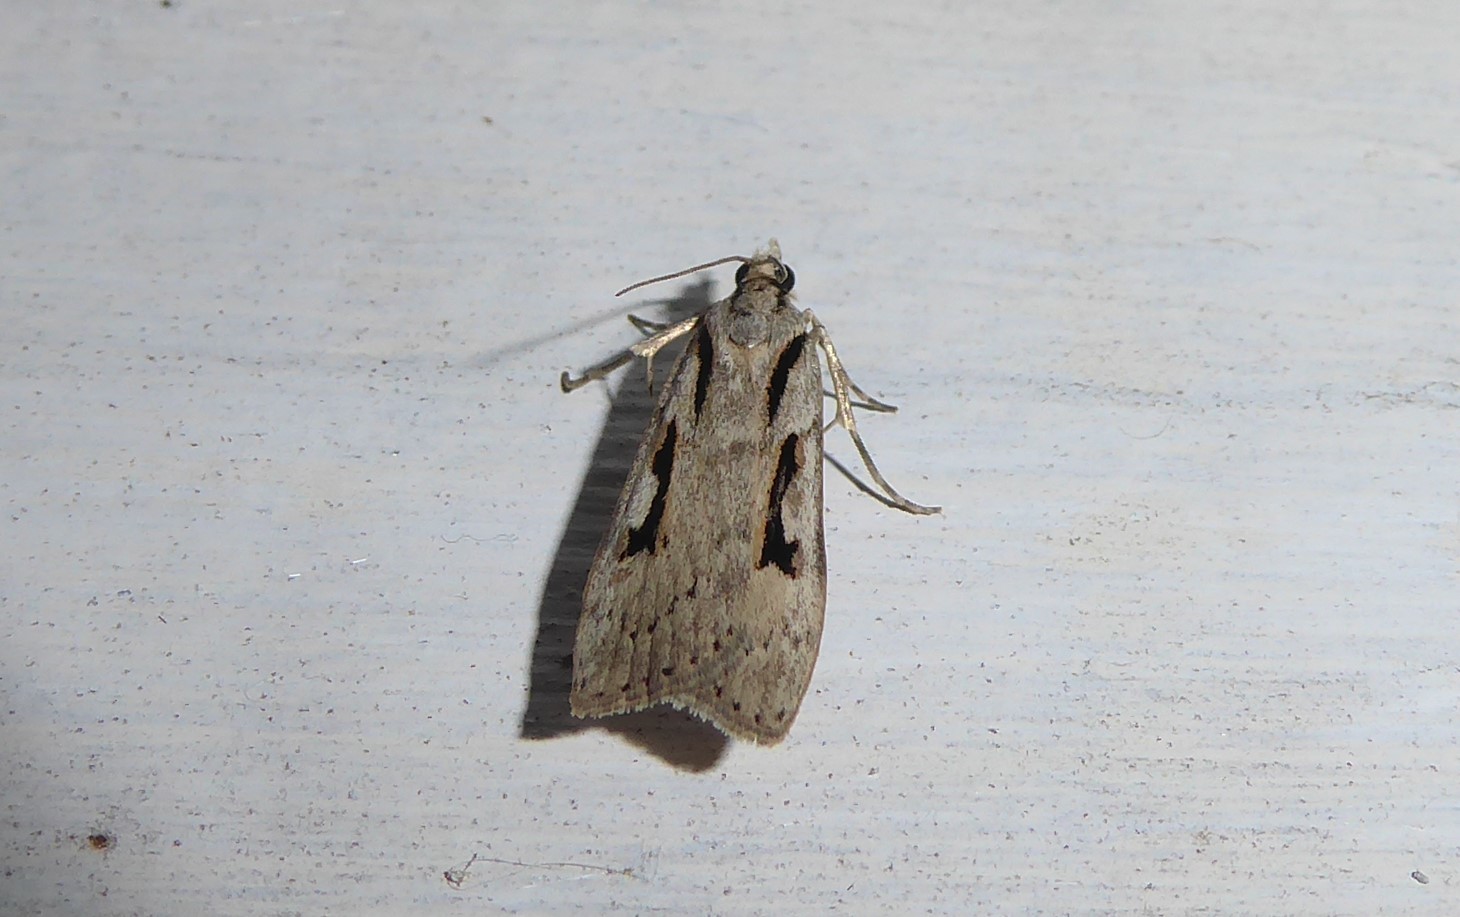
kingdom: Animalia
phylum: Arthropoda
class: Insecta
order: Lepidoptera
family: Crambidae
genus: Scoparia
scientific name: Scoparia rotuellus
